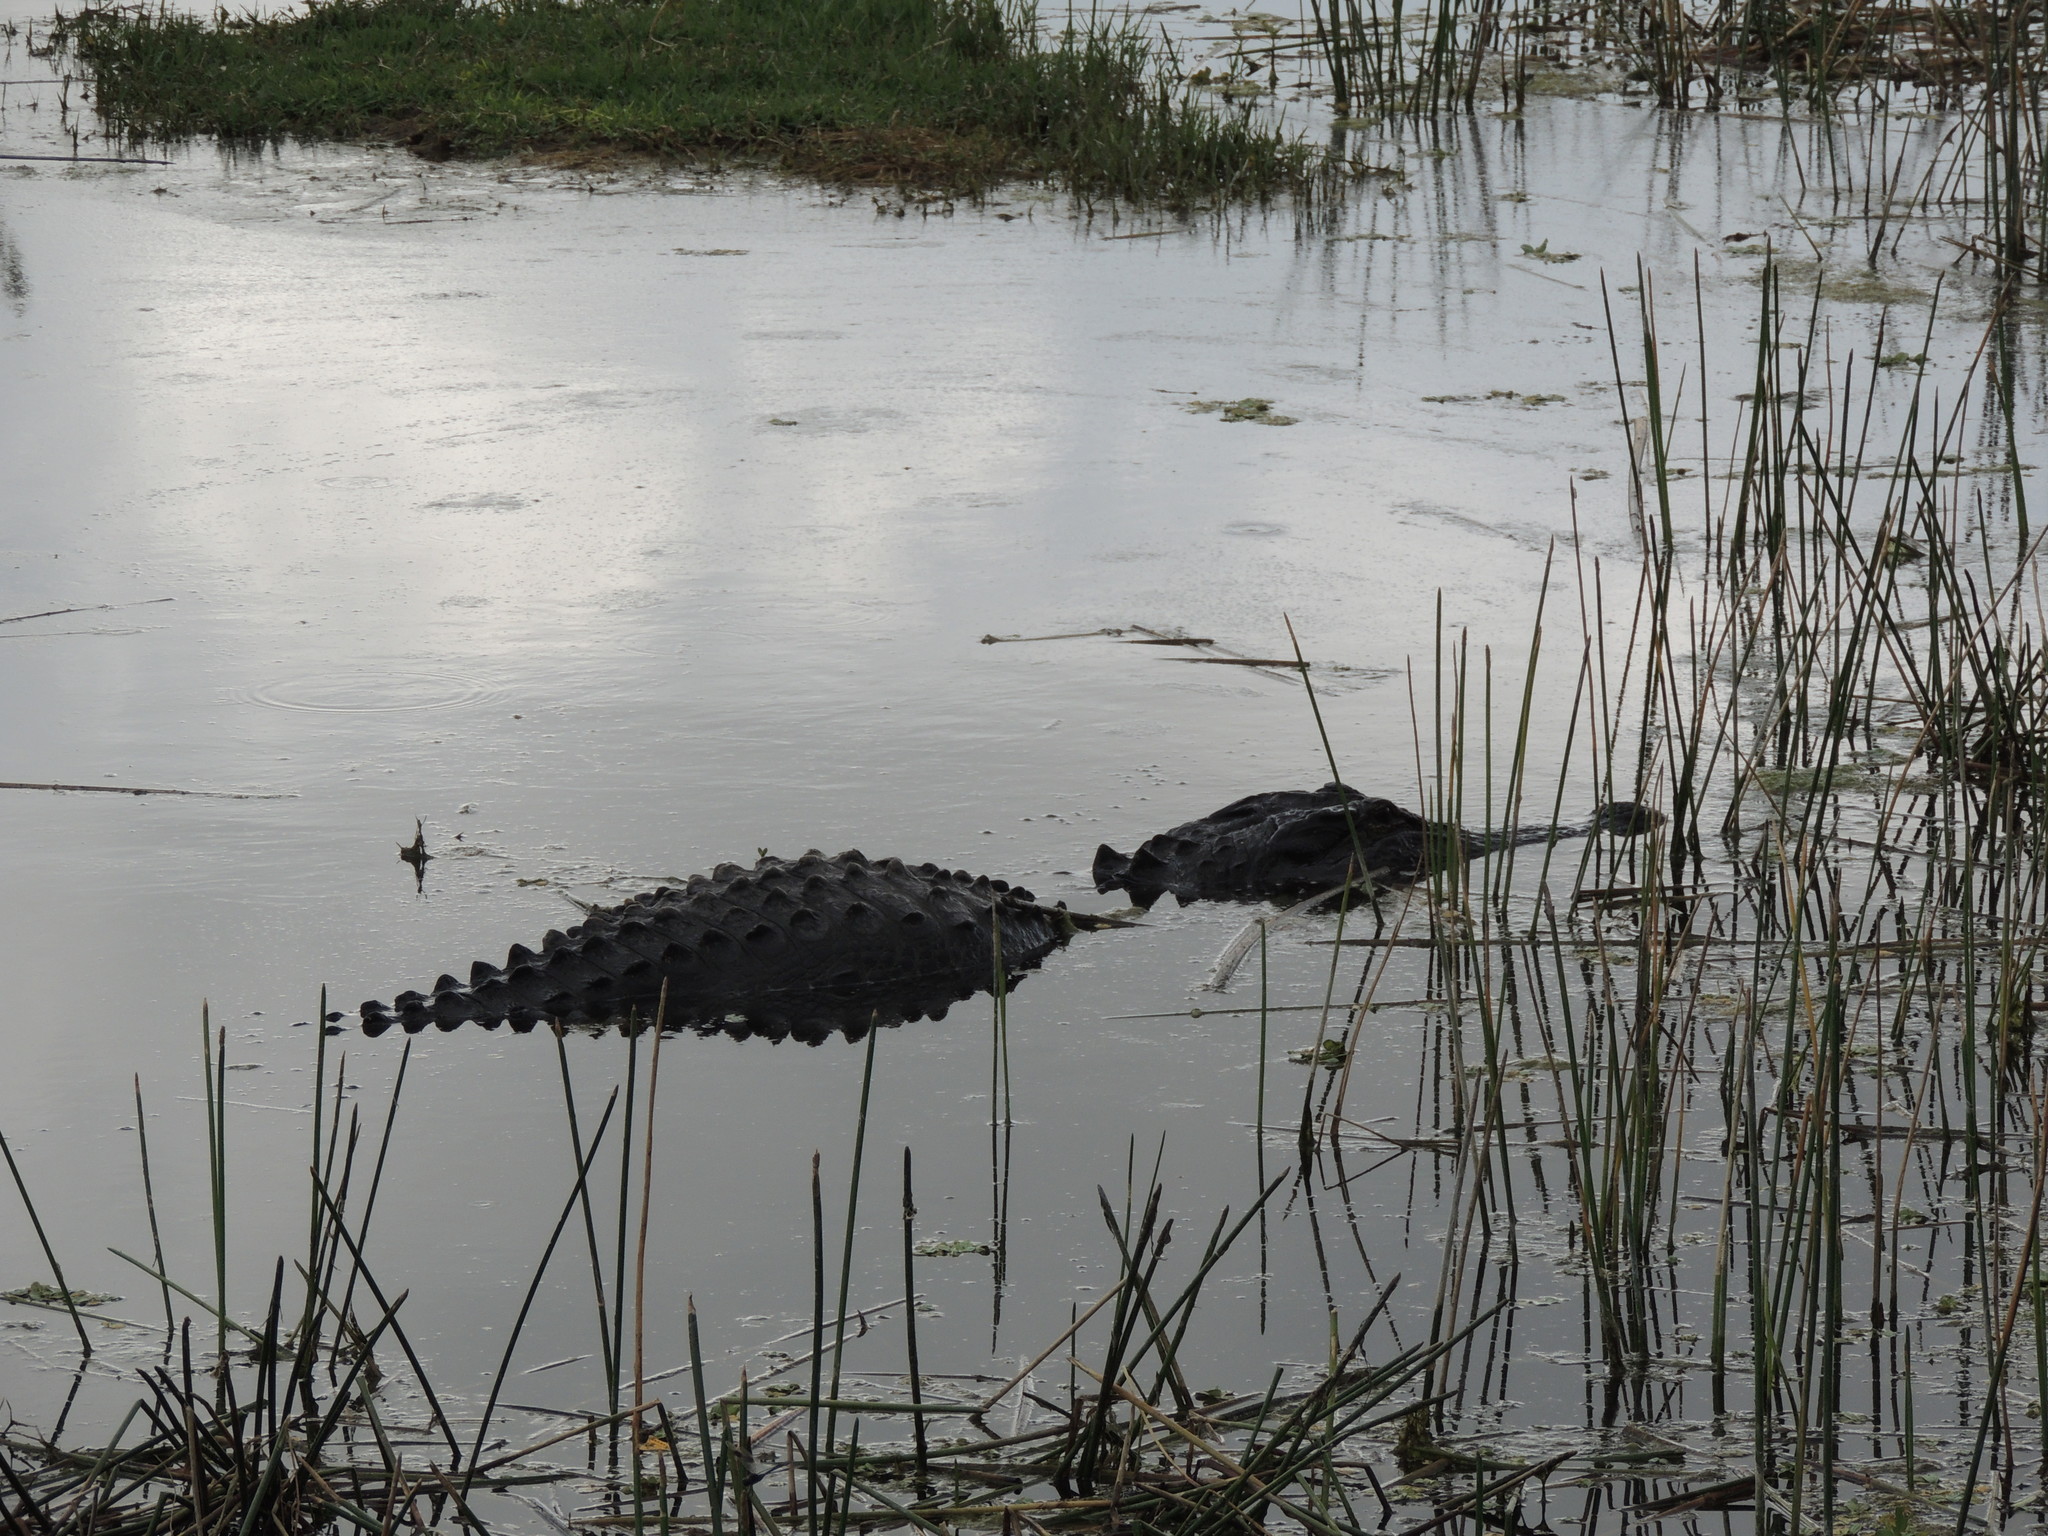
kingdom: Animalia
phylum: Chordata
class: Crocodylia
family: Alligatoridae
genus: Alligator
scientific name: Alligator mississippiensis
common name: American alligator
